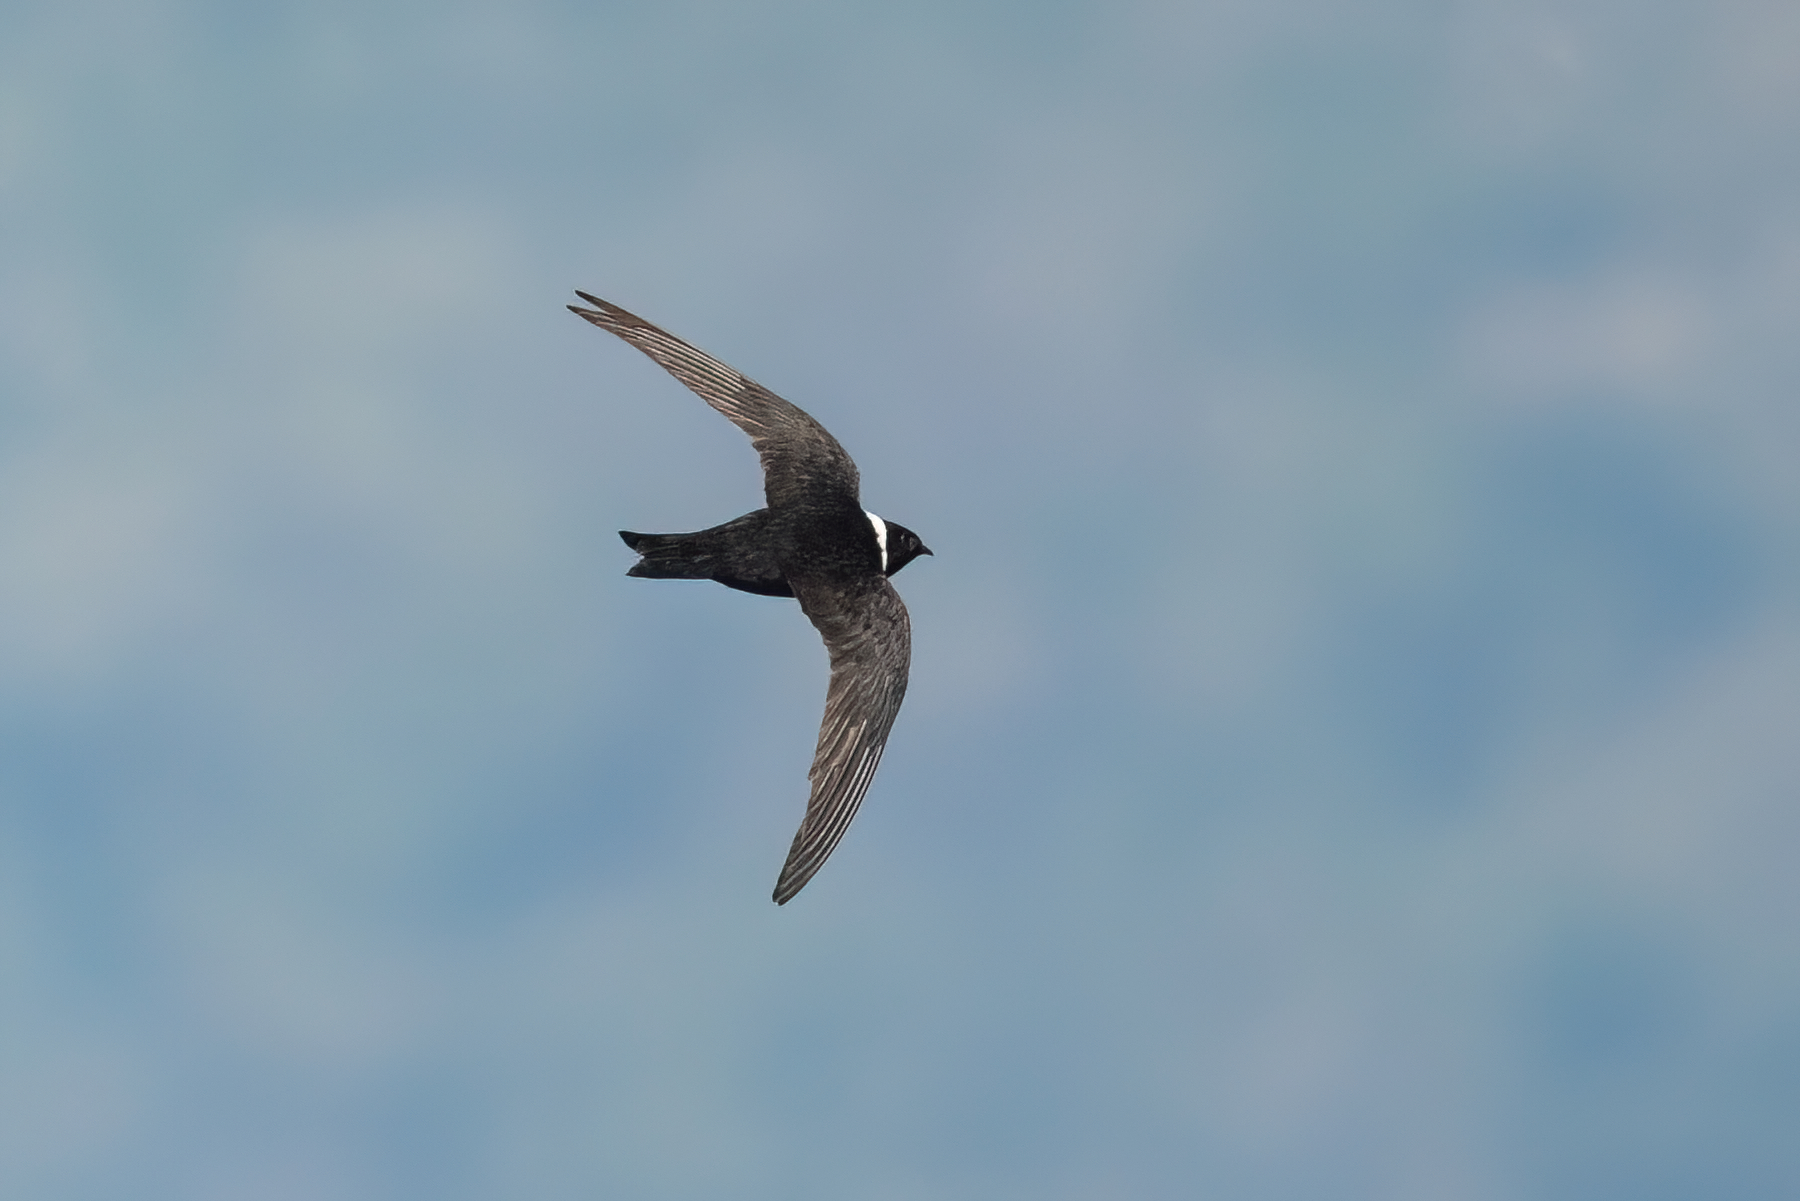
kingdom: Animalia
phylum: Chordata
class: Aves
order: Apodiformes
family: Apodidae
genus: Streptoprocne
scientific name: Streptoprocne zonaris
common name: White-collared swift
